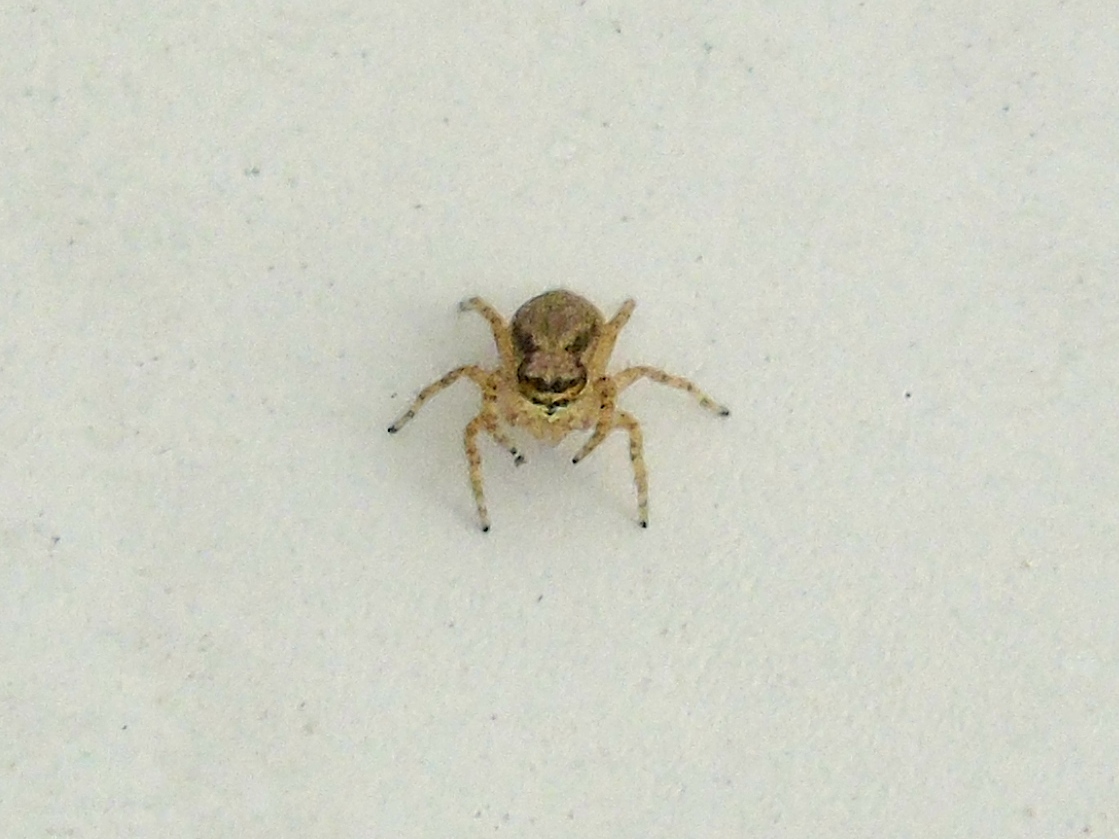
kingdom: Animalia
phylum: Arthropoda
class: Arachnida
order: Araneae
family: Salticidae
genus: Menemerus
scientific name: Menemerus bivittatus
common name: Gray wall jumper
